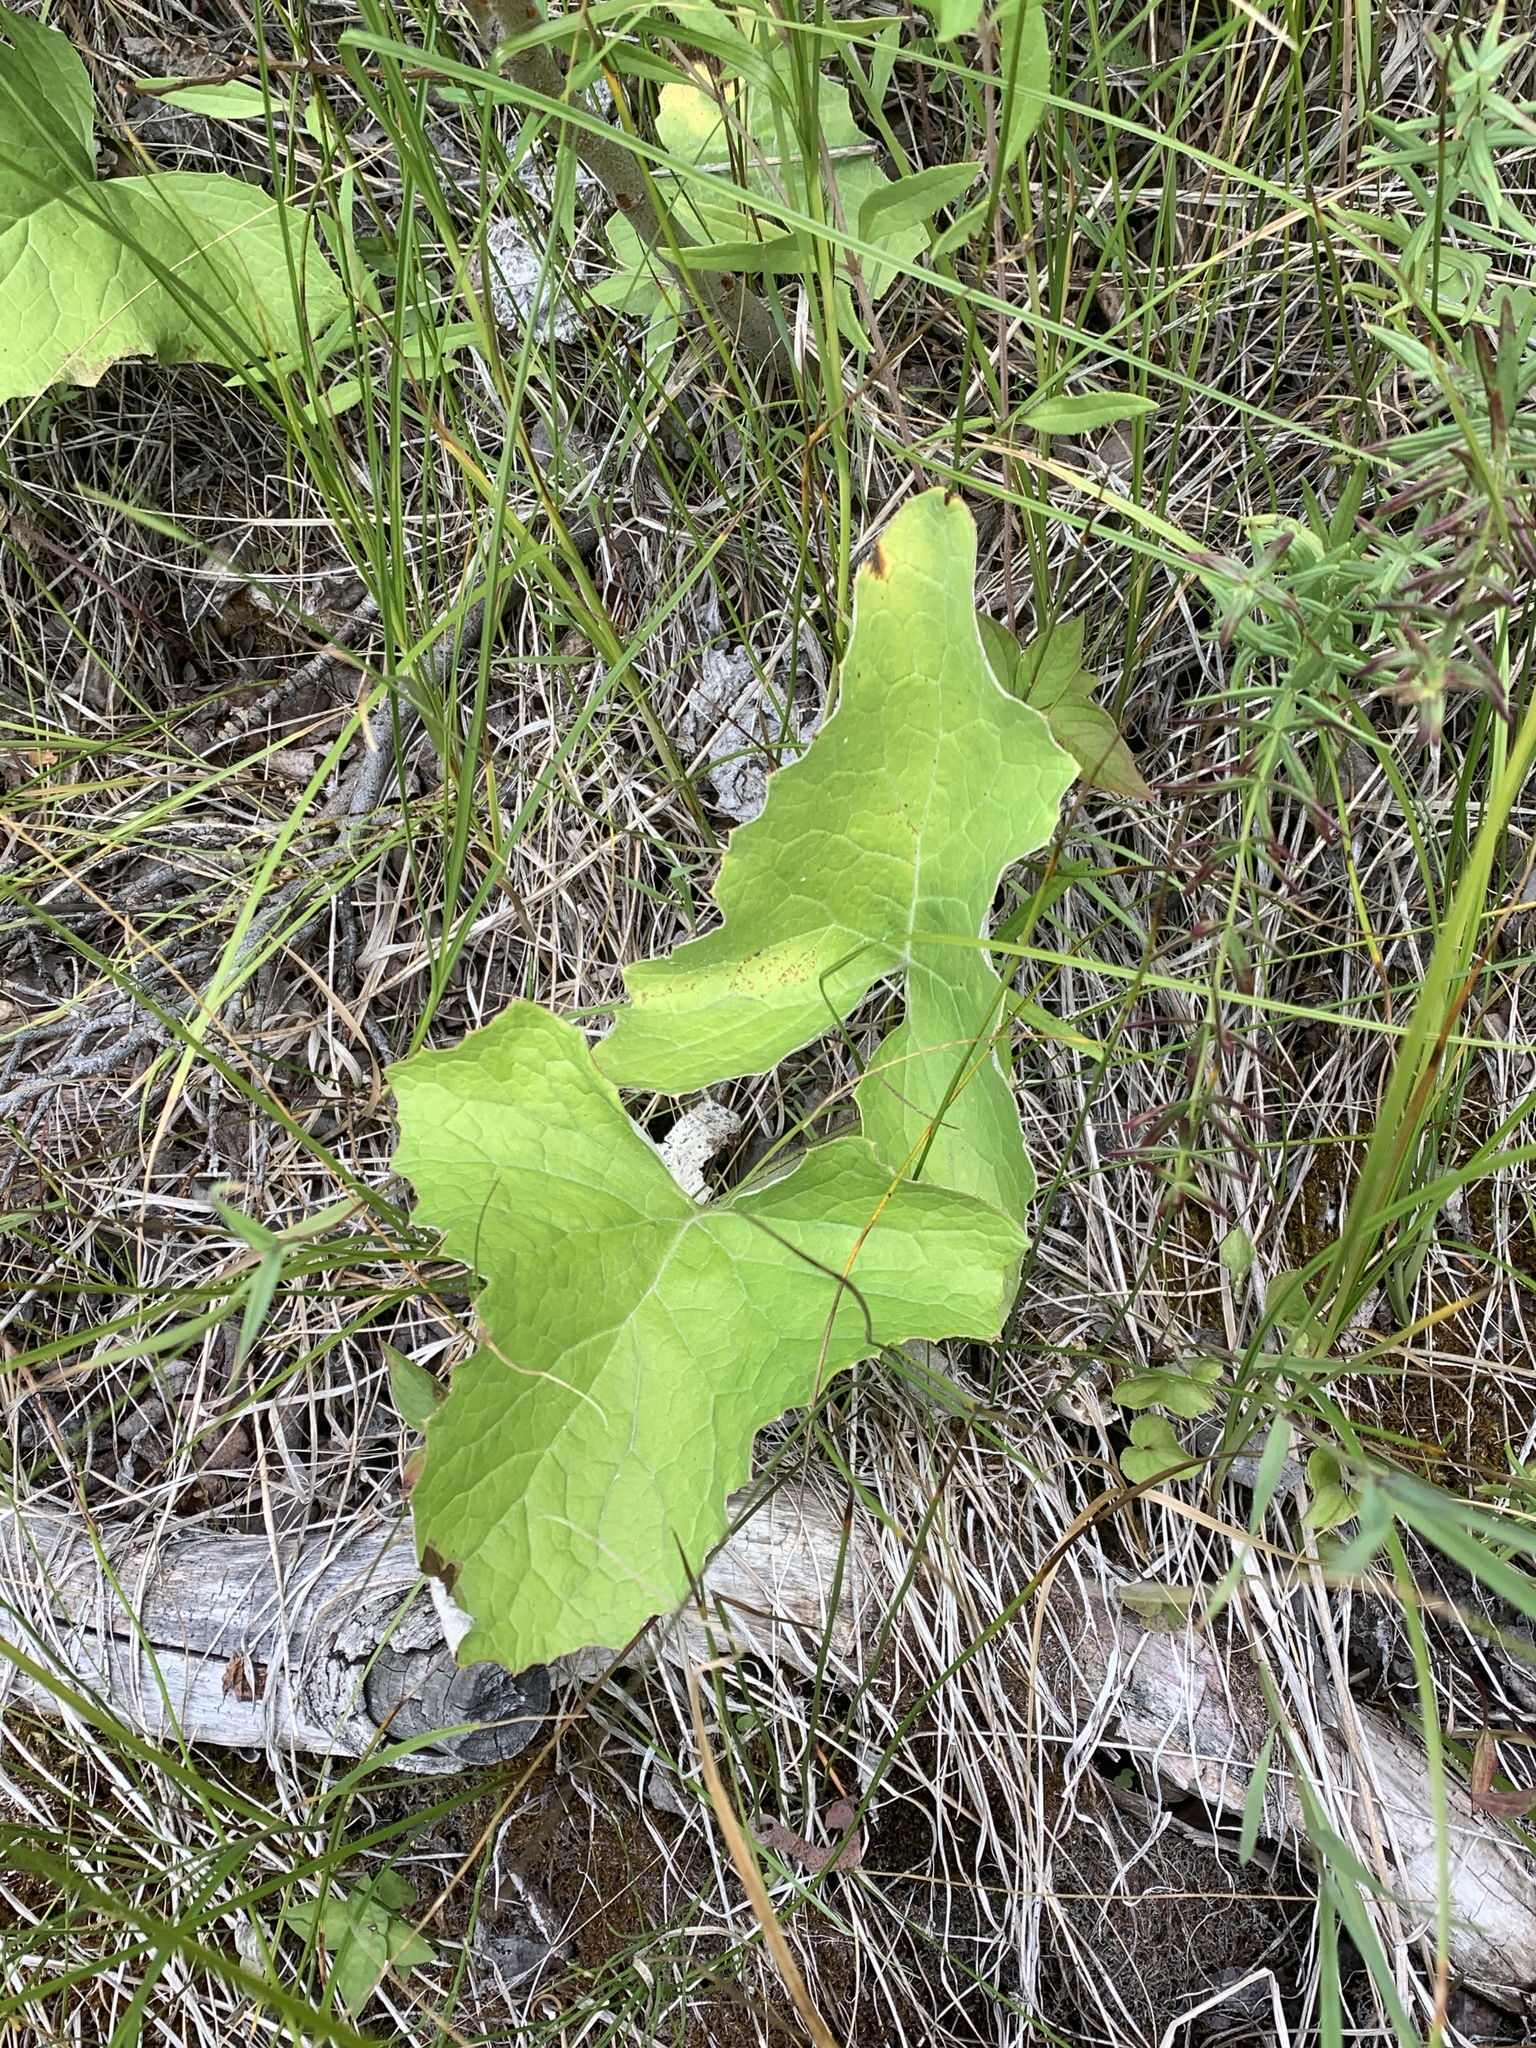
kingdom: Plantae
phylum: Tracheophyta
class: Magnoliopsida
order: Asterales
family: Asteraceae
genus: Petasites
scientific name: Petasites frigidus
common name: Arctic butterbur
